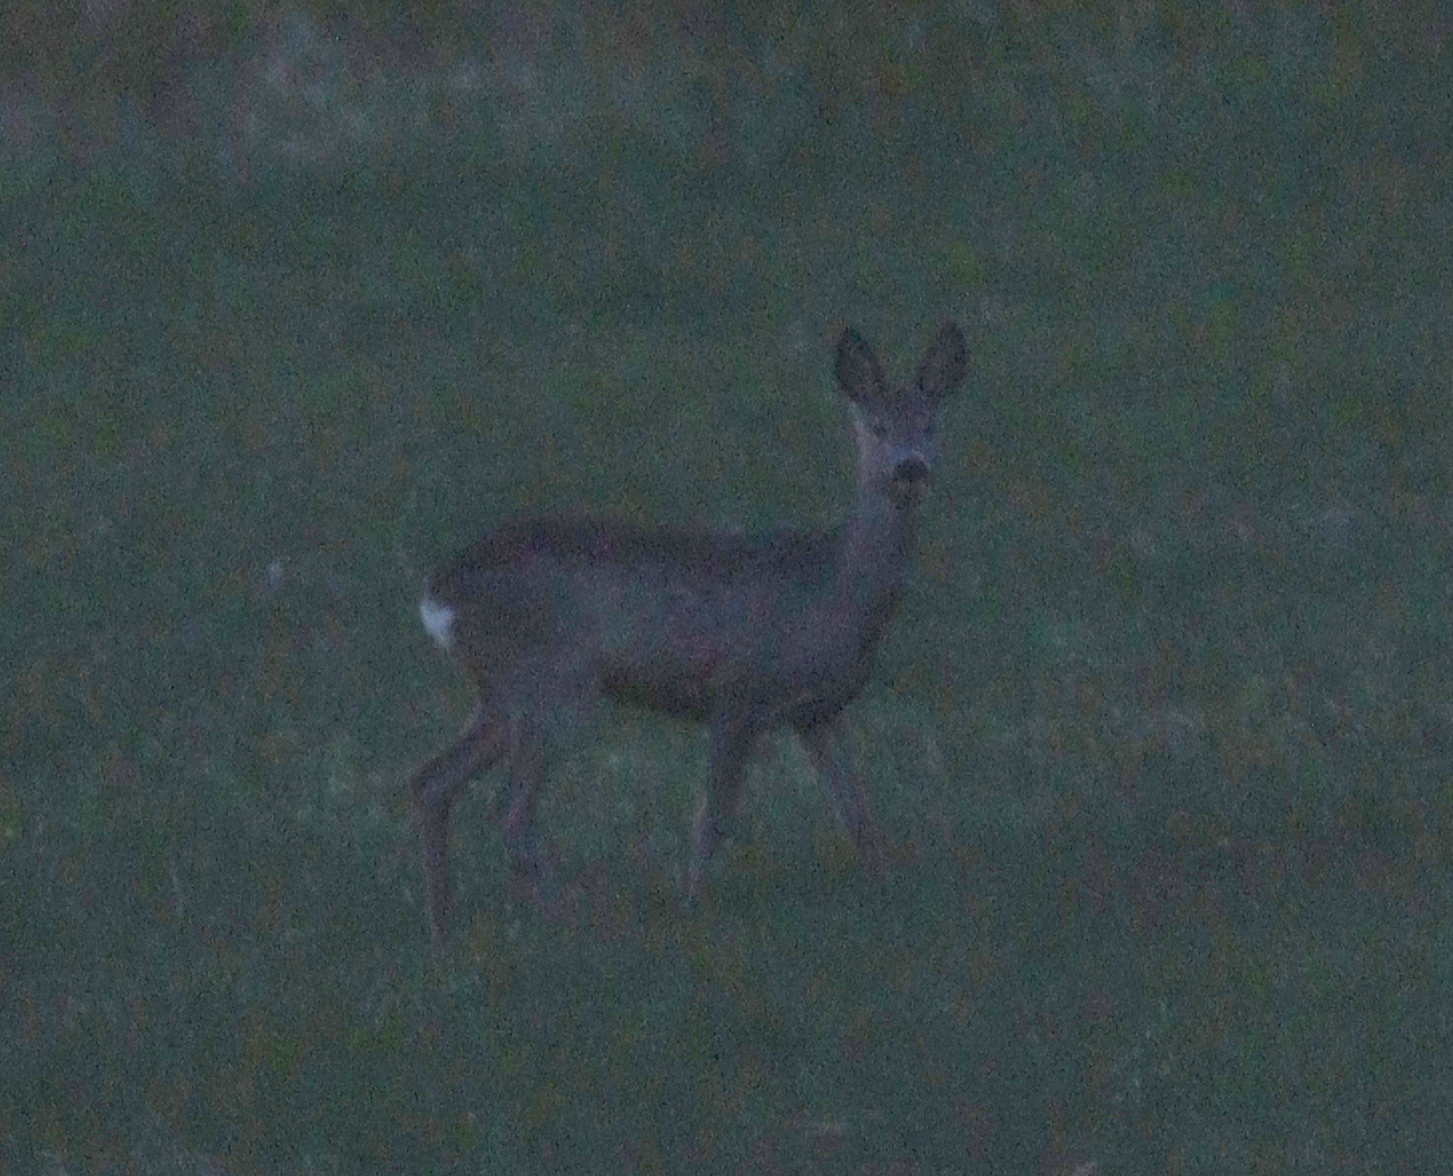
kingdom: Animalia
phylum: Chordata
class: Mammalia
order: Artiodactyla
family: Cervidae
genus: Capreolus
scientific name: Capreolus capreolus
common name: Western roe deer
